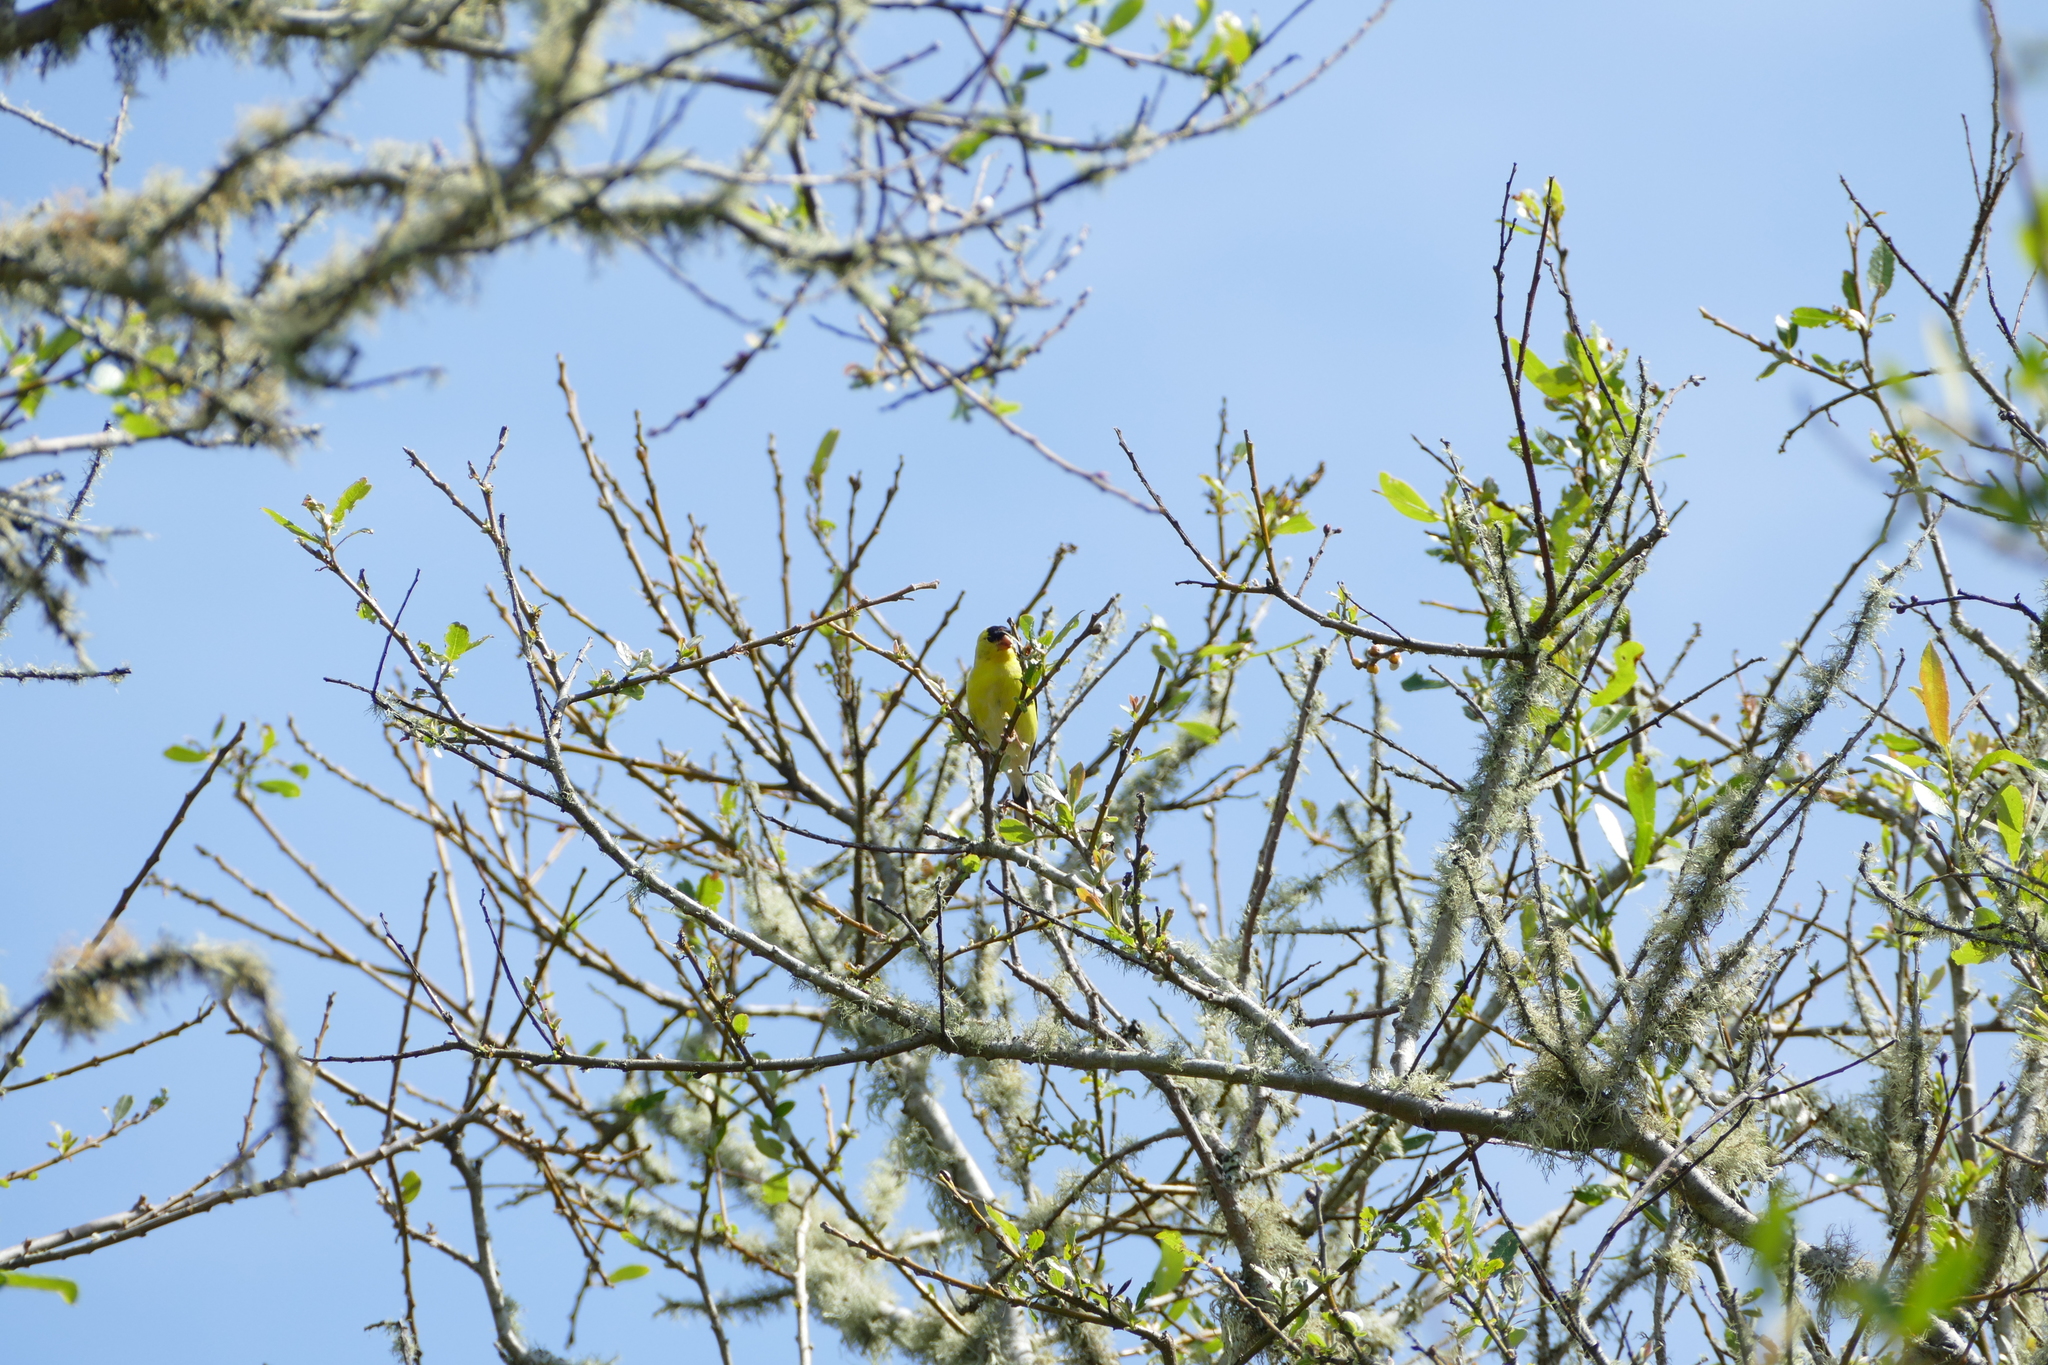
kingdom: Animalia
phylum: Chordata
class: Aves
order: Passeriformes
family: Fringillidae
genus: Spinus
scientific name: Spinus tristis
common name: American goldfinch
